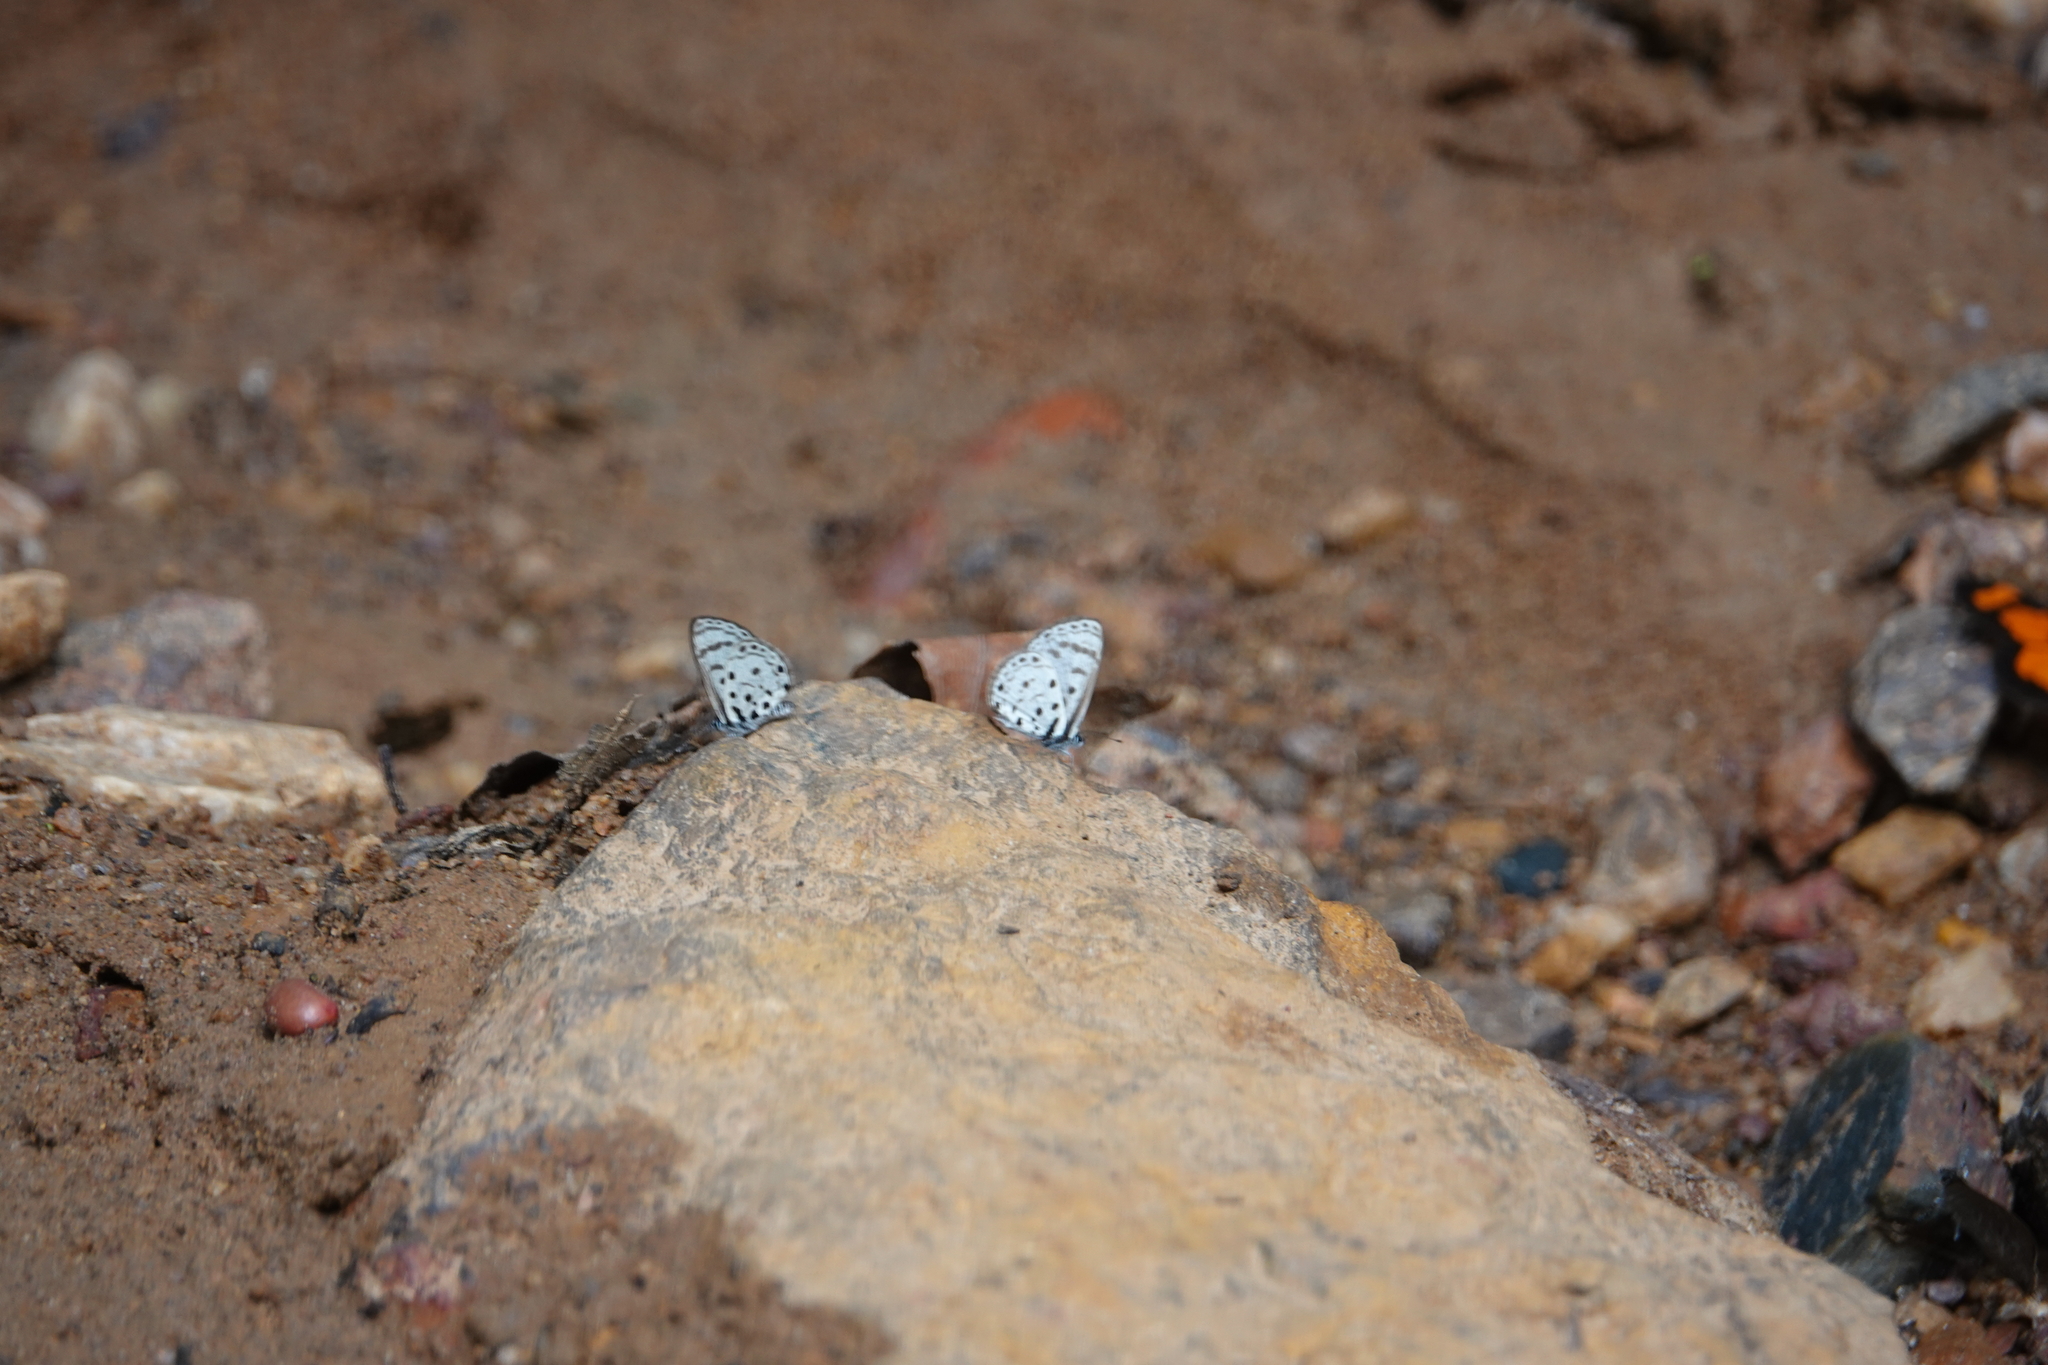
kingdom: Animalia
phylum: Arthropoda
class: Insecta
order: Lepidoptera
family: Lycaenidae
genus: Azanus
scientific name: Azanus moriqua
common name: Thorn-tree babul blue
